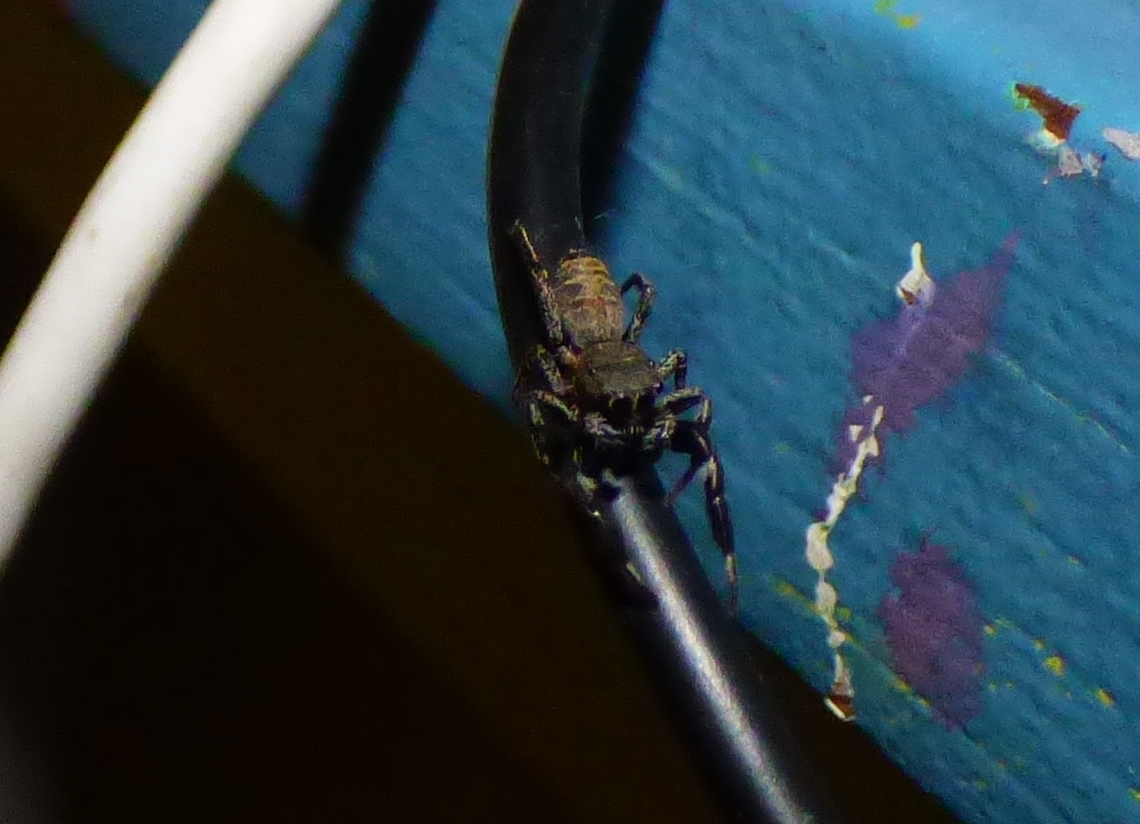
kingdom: Animalia
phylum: Arthropoda
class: Arachnida
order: Araneae
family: Salticidae
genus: Breda
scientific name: Breda
